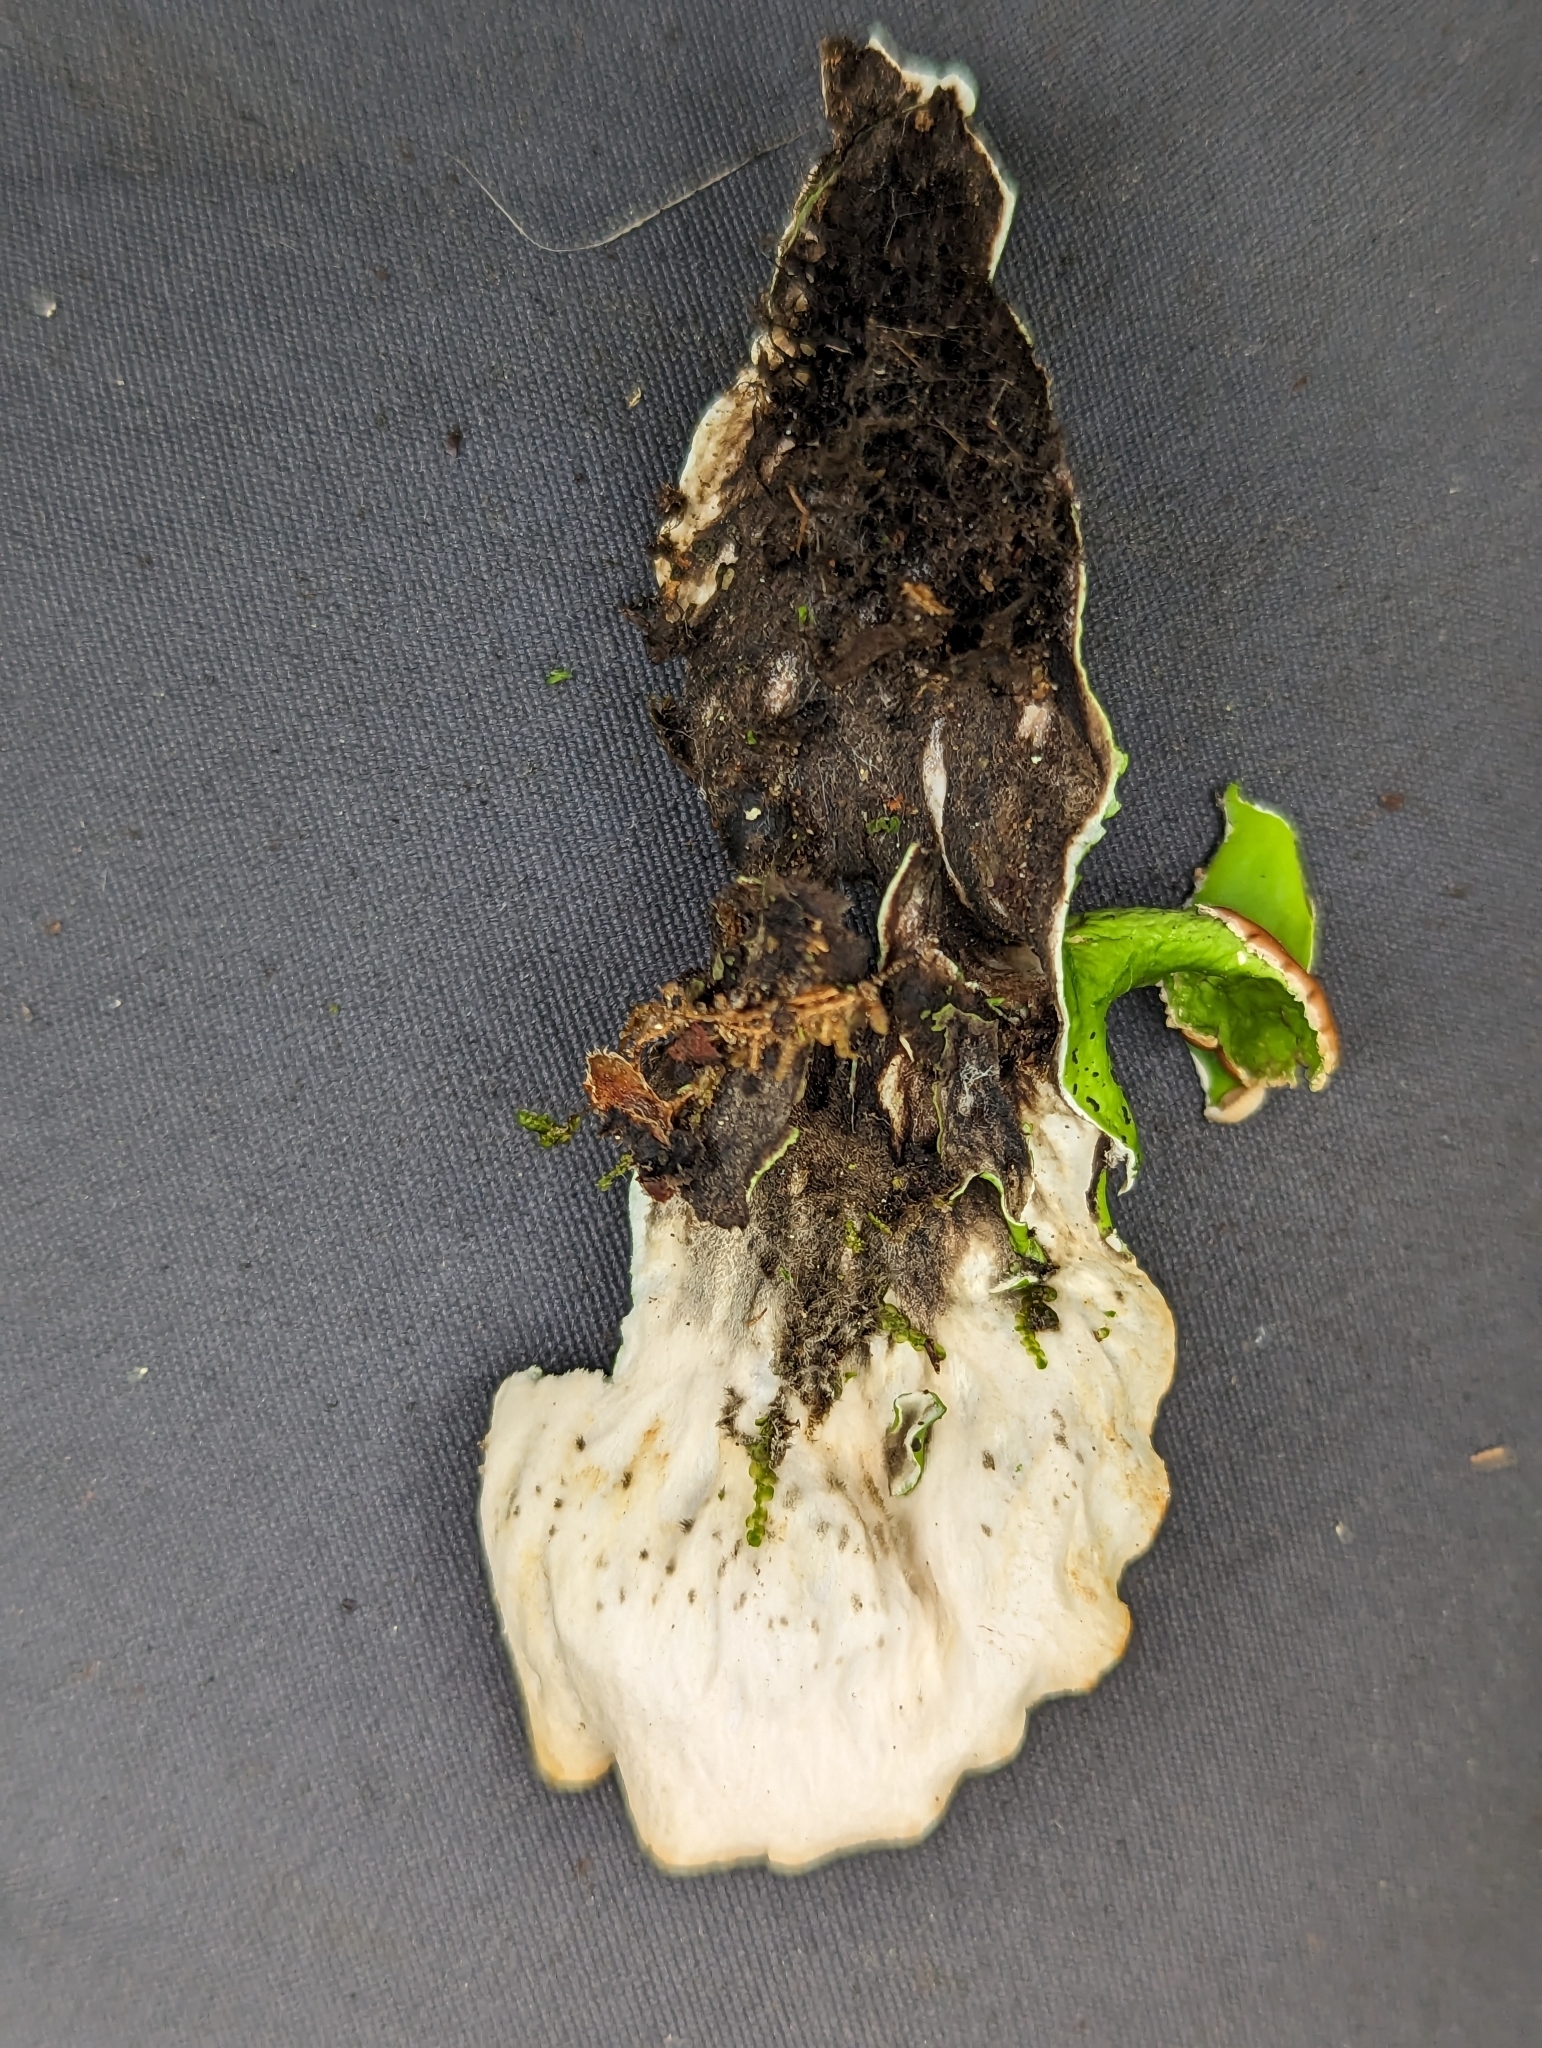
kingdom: Fungi
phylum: Ascomycota
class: Lecanoromycetes
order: Peltigerales
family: Peltigeraceae
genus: Peltigera
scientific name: Peltigera aphthosa
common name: Common freckle pelt lichen
